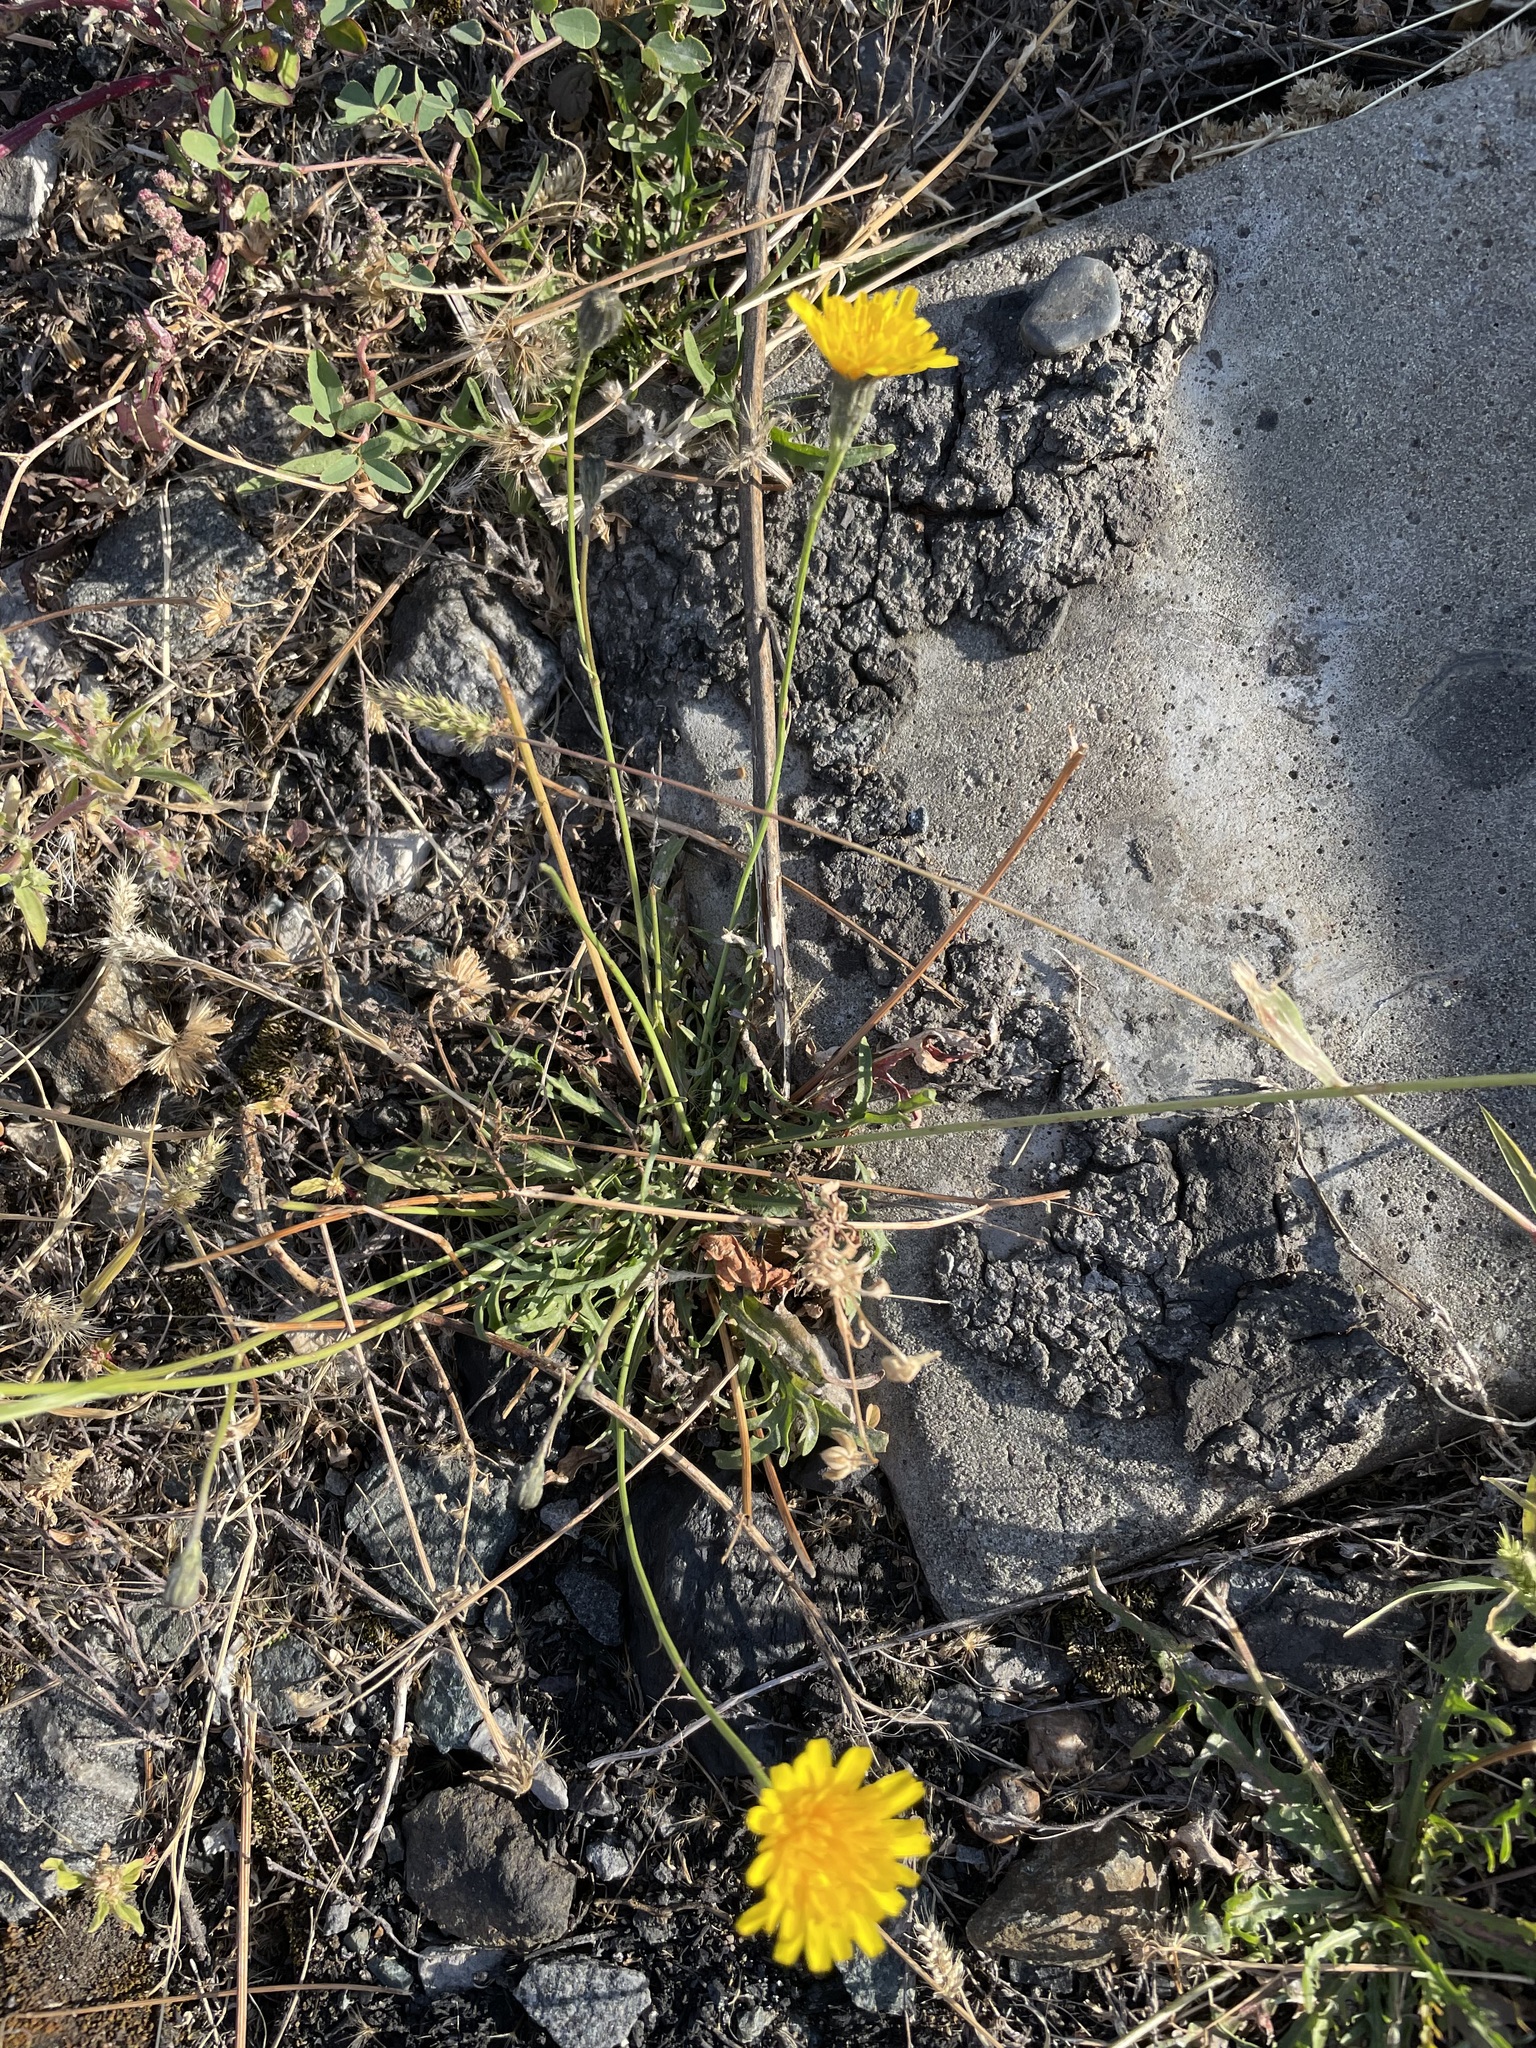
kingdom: Plantae
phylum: Tracheophyta
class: Magnoliopsida
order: Asterales
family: Asteraceae
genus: Scorzoneroides
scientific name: Scorzoneroides autumnalis
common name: Autumn hawkbit
